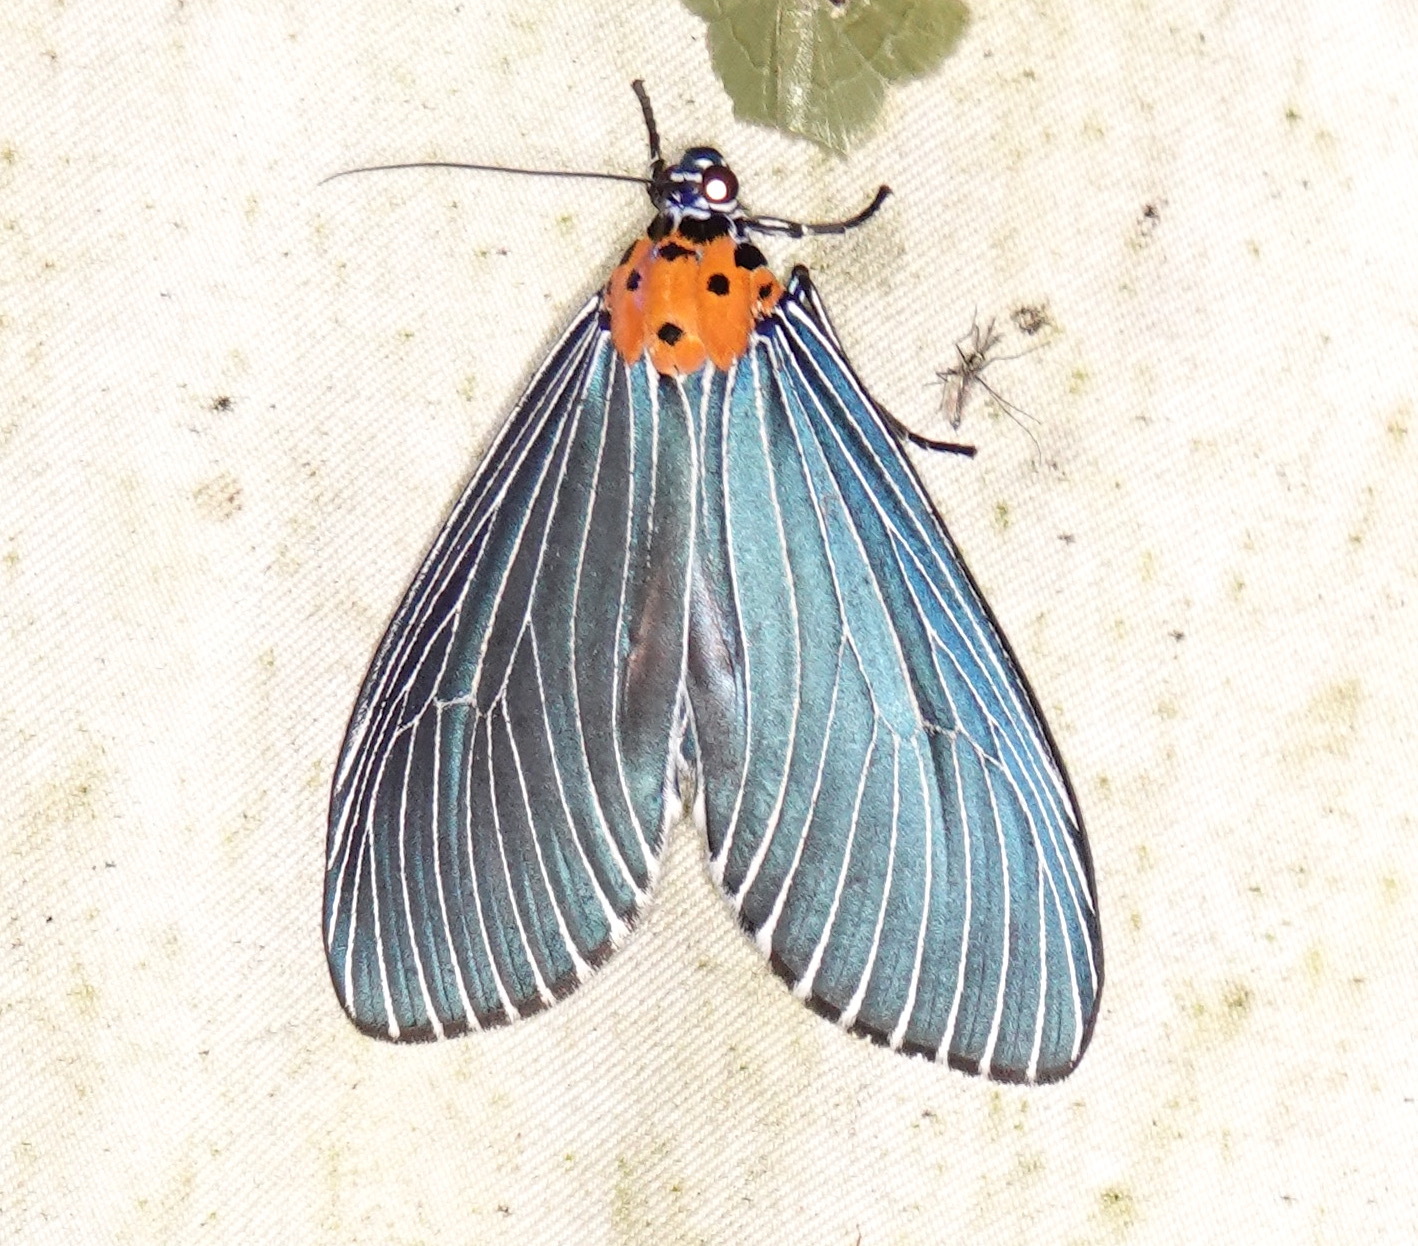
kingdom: Animalia
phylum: Arthropoda
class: Insecta
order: Lepidoptera
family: Erebidae
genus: Neochera
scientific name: Neochera marmorea
